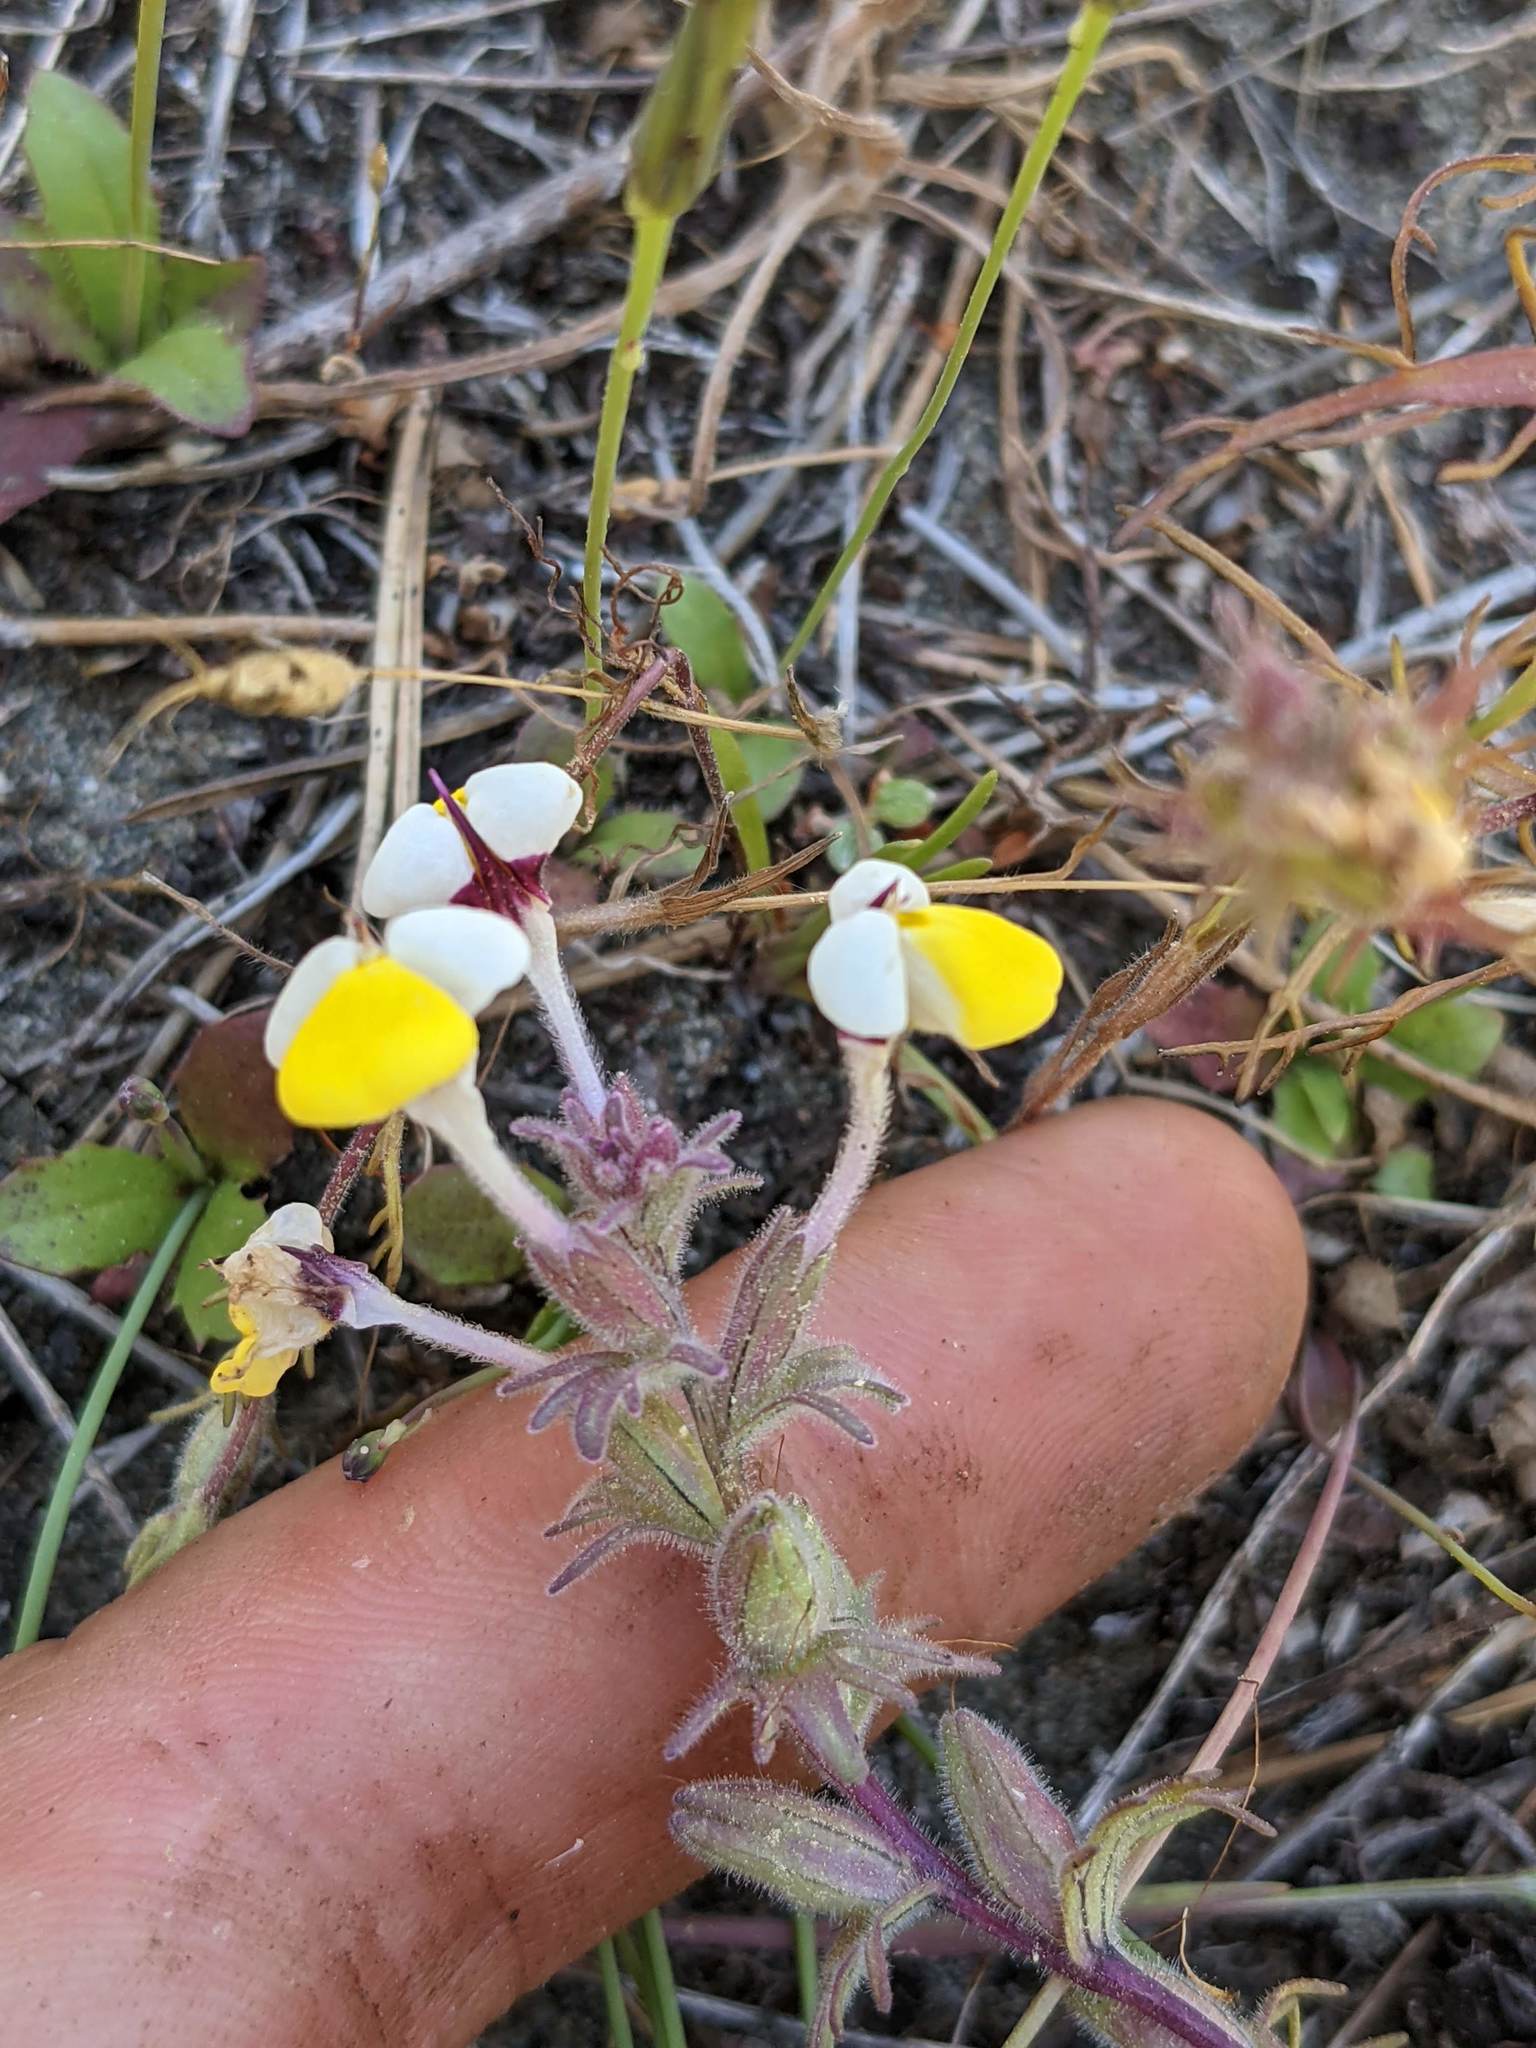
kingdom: Plantae
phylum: Tracheophyta
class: Magnoliopsida
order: Lamiales
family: Orobanchaceae
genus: Triphysaria
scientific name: Triphysaria eriantha
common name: Johnny-tuck
